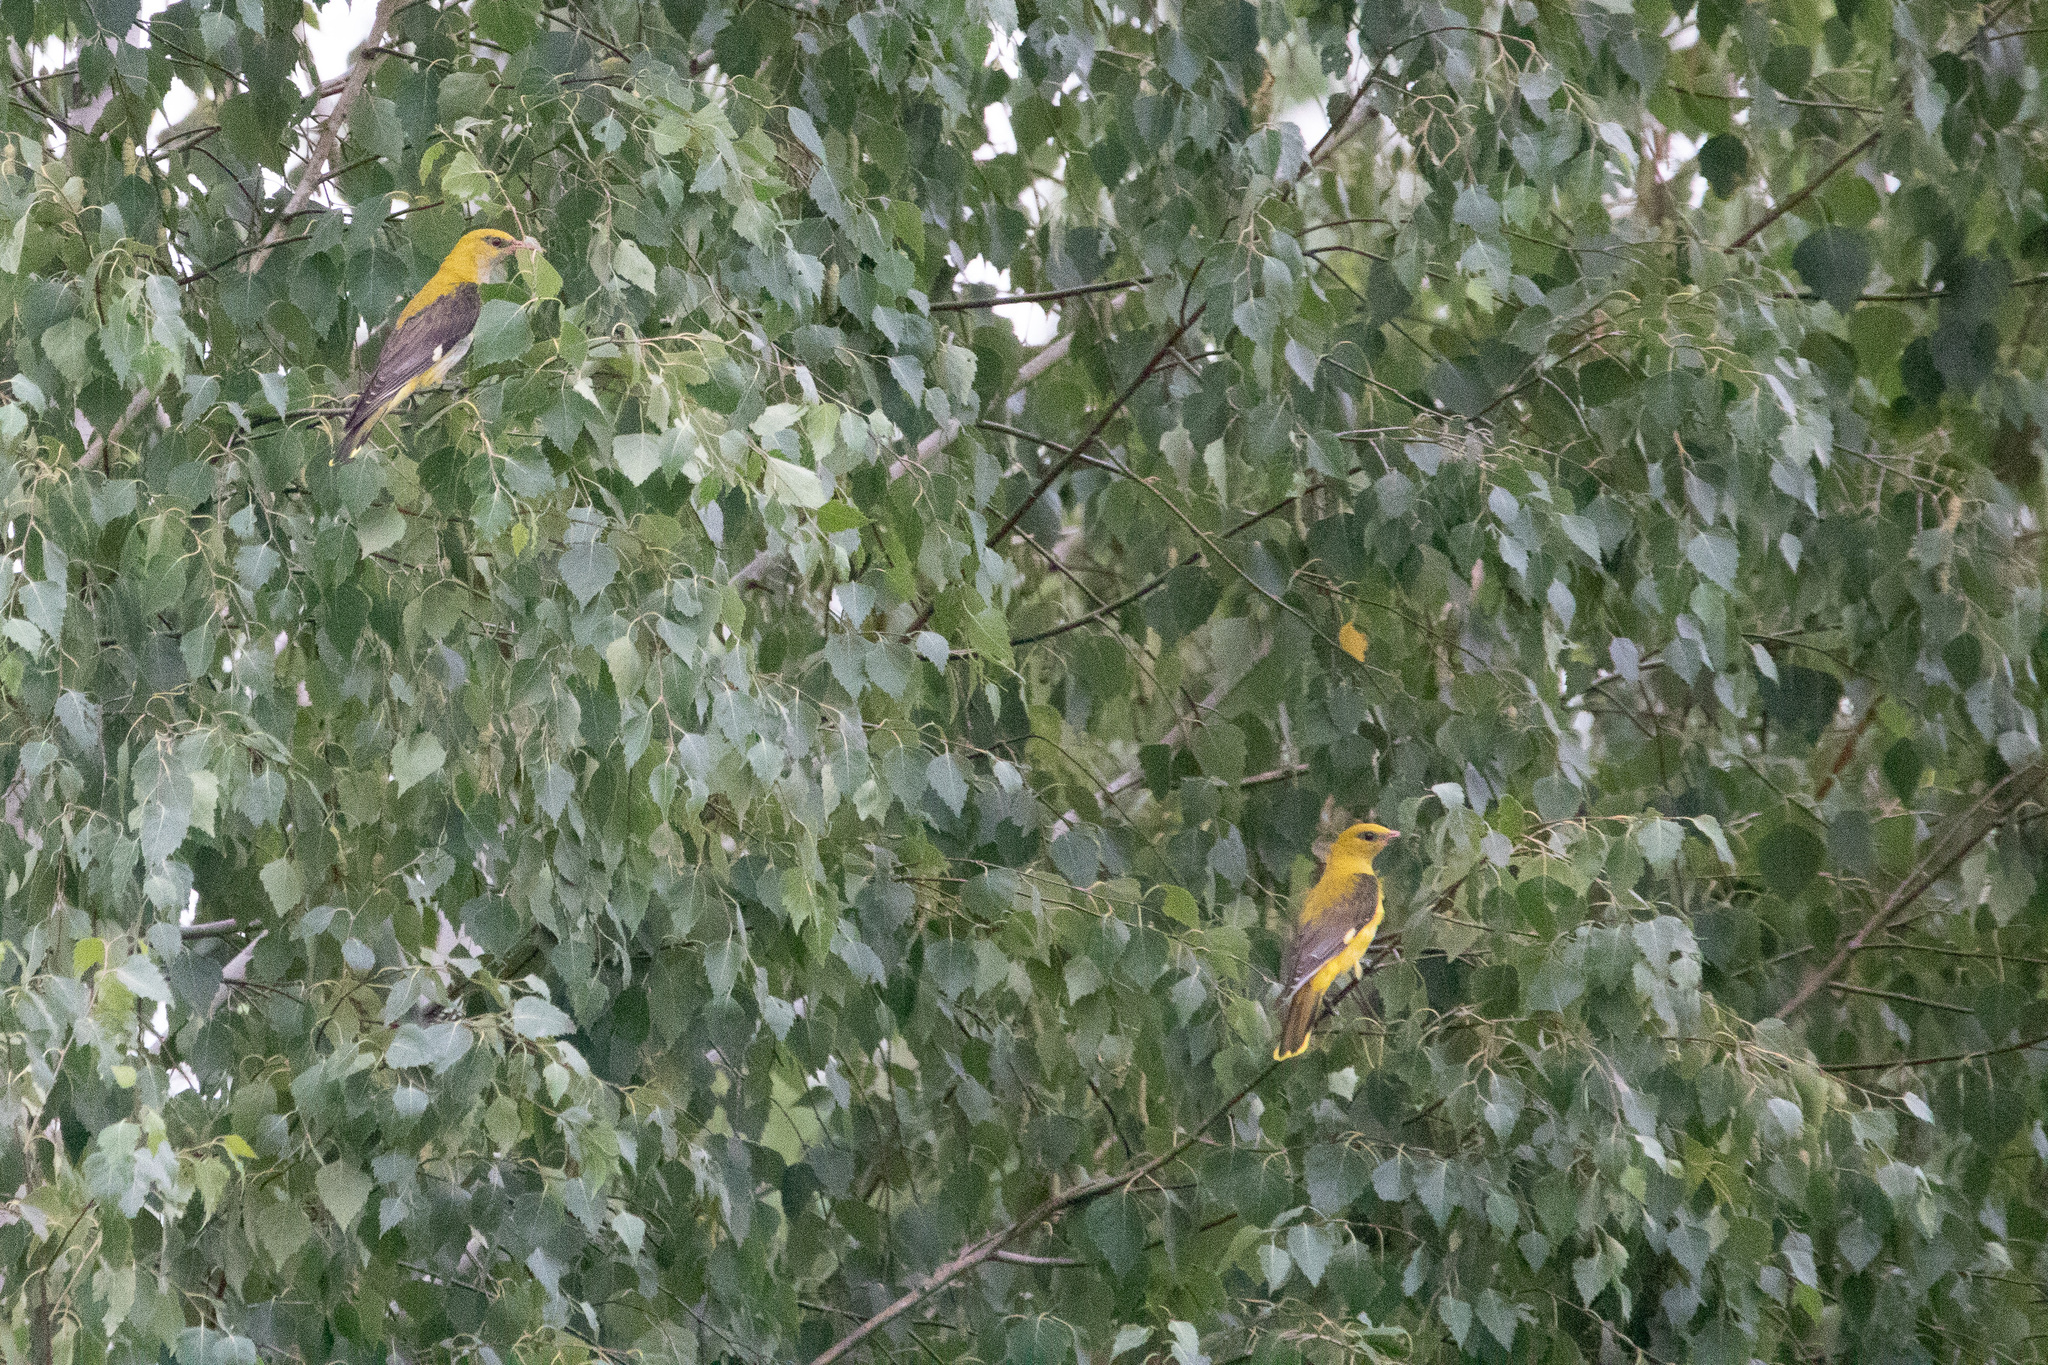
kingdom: Animalia
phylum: Chordata
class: Aves
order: Passeriformes
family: Oriolidae
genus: Oriolus
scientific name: Oriolus oriolus
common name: Eurasian golden oriole
